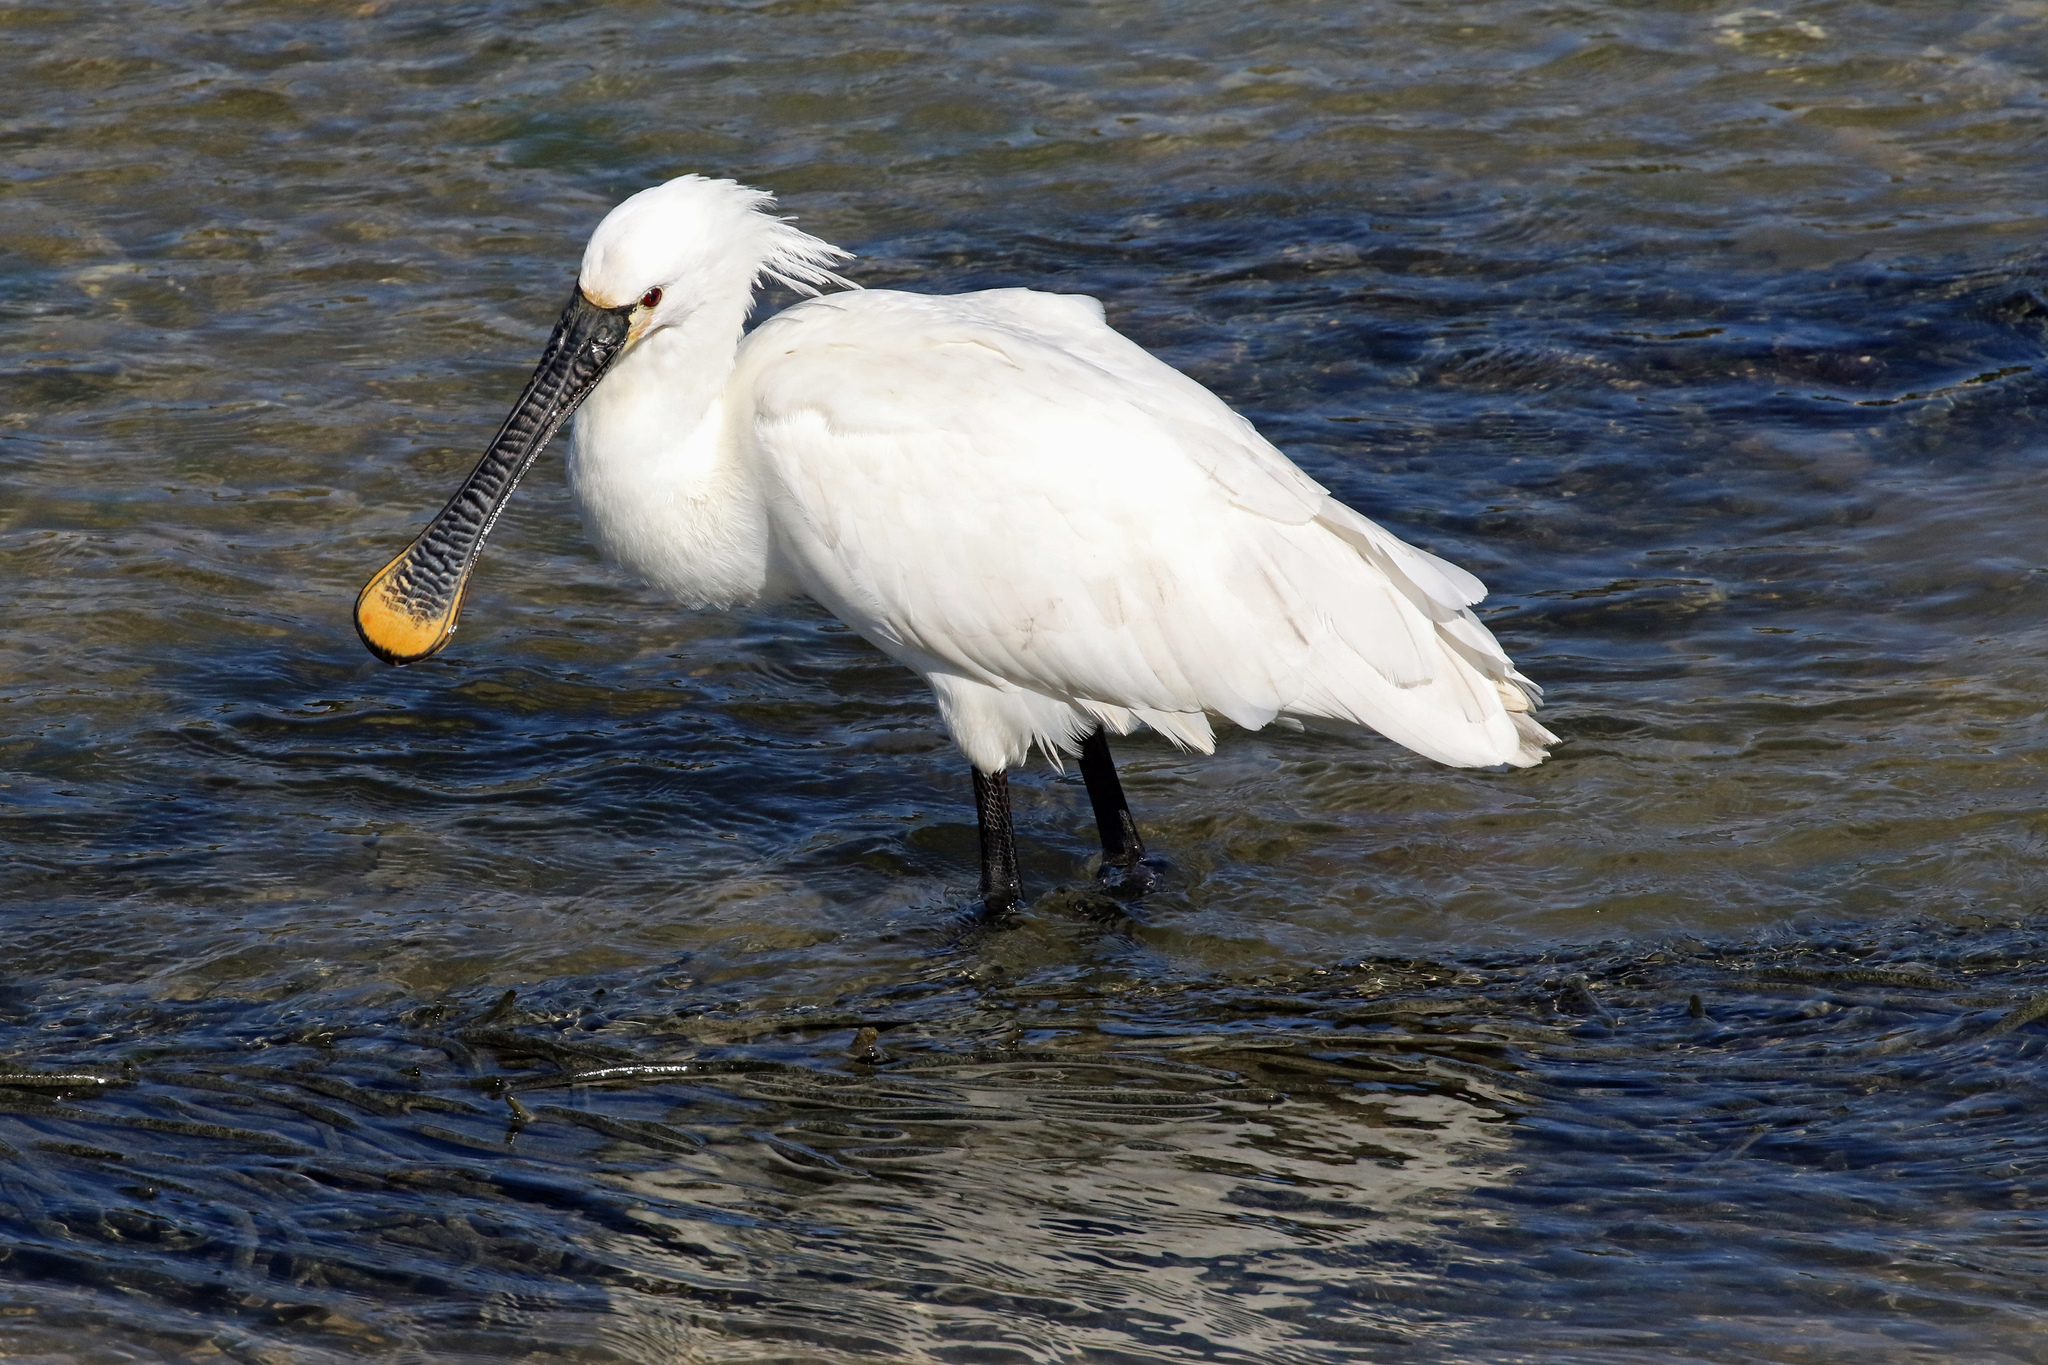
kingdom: Animalia
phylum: Chordata
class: Aves
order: Pelecaniformes
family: Threskiornithidae
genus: Platalea
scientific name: Platalea leucorodia
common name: Eurasian spoonbill
